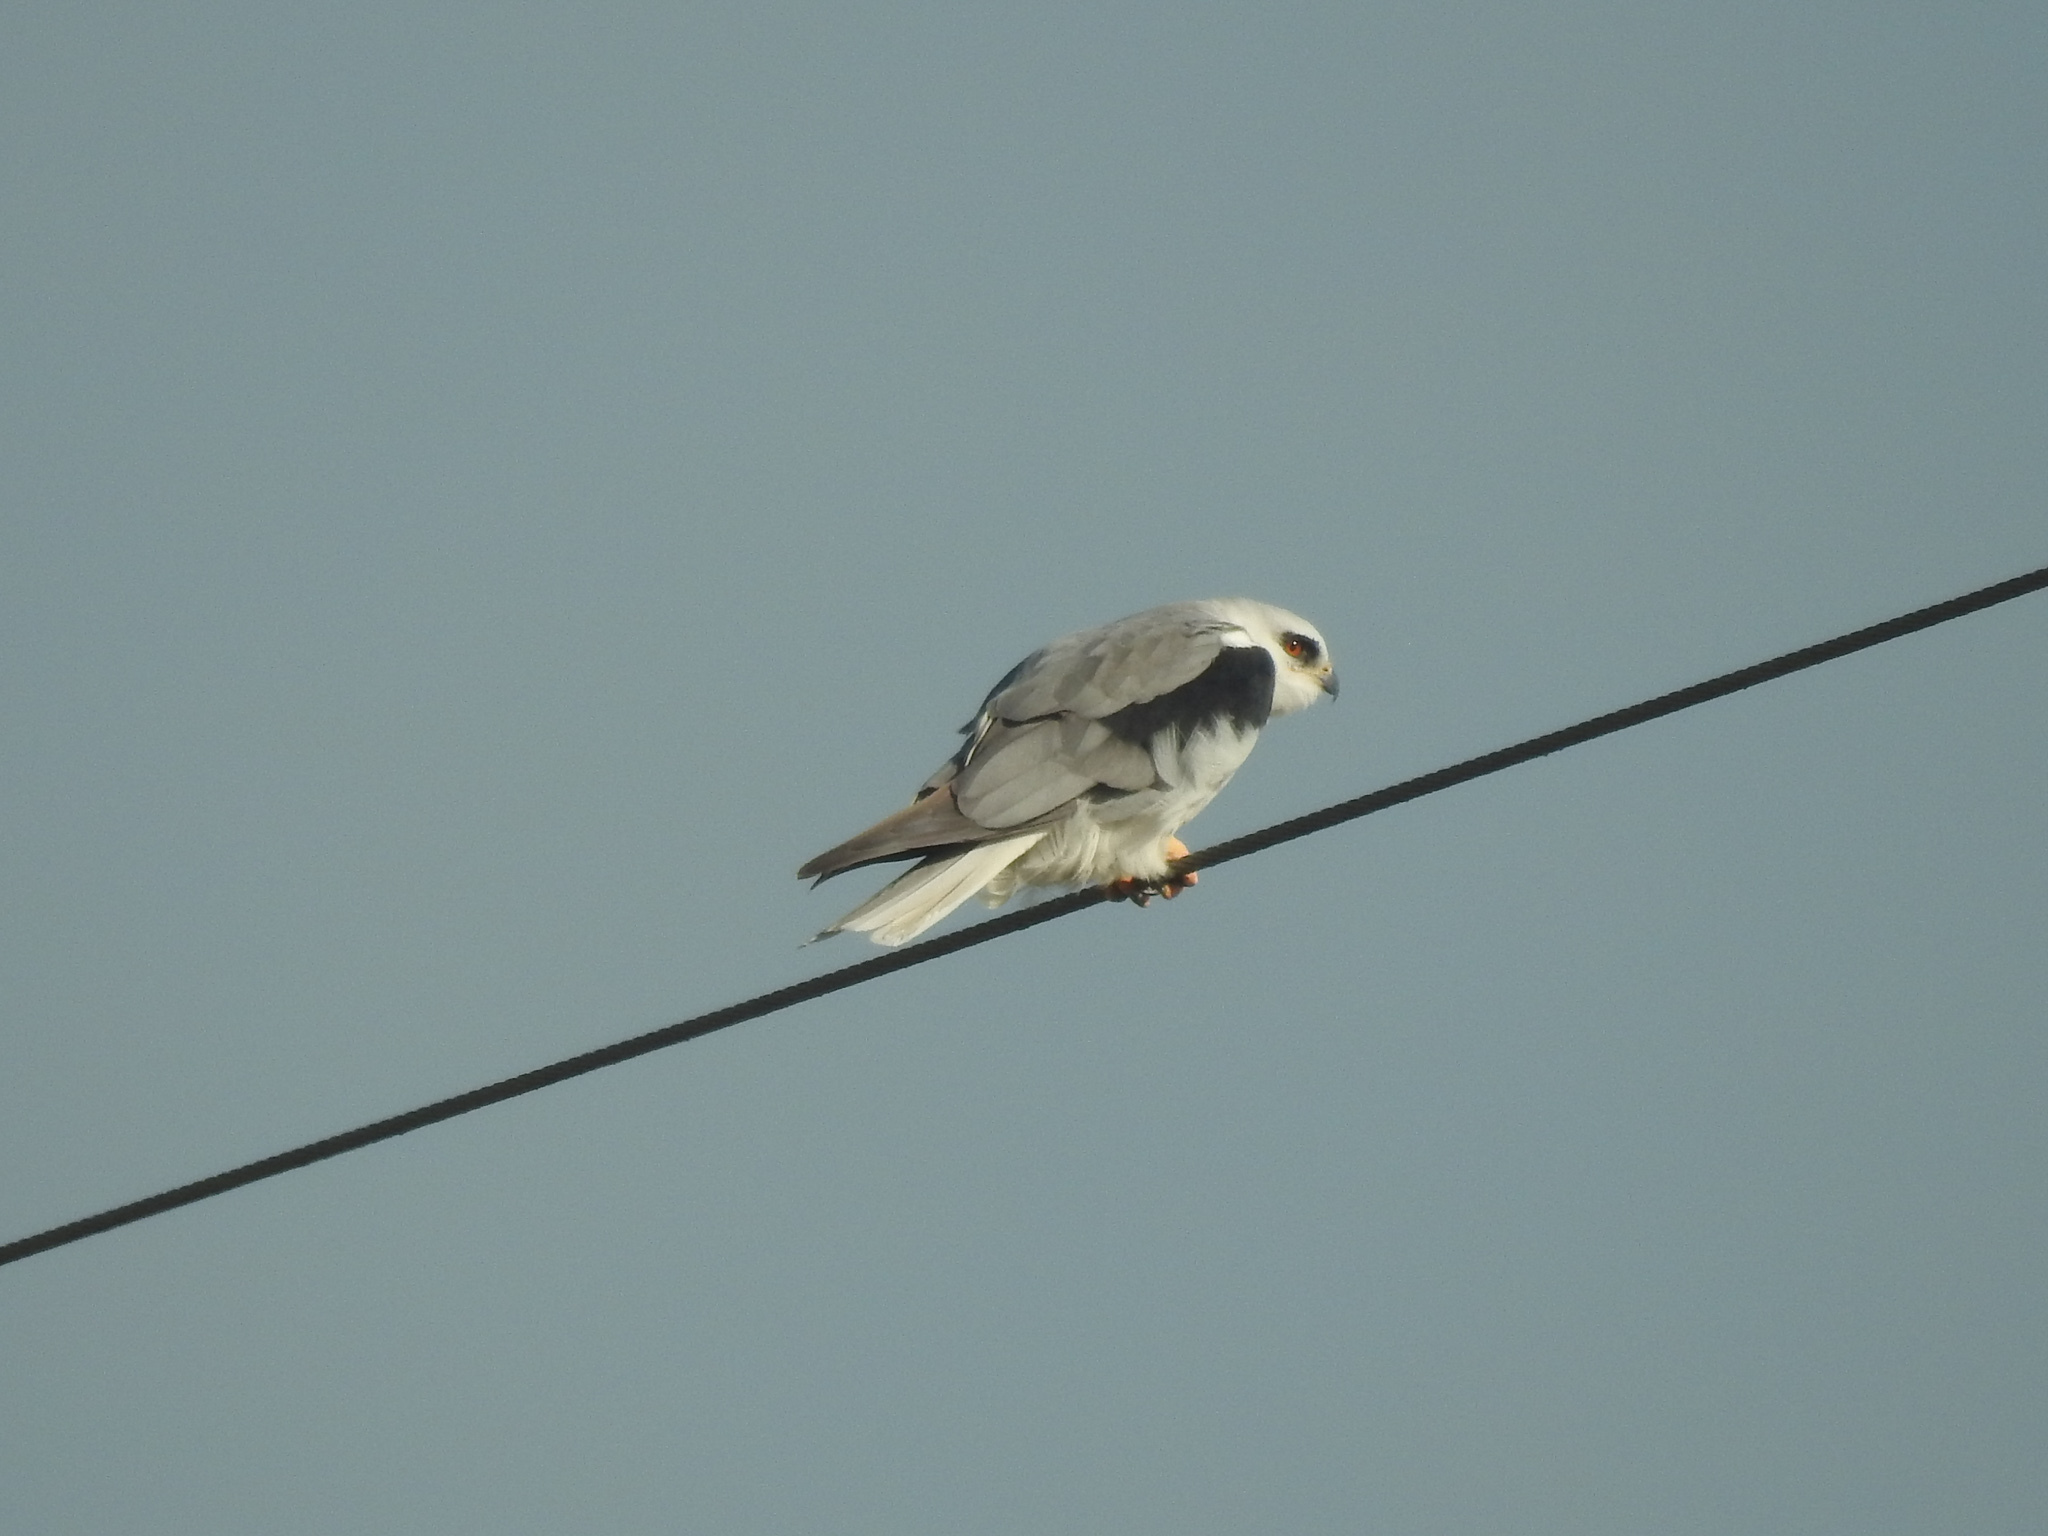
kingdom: Animalia
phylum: Chordata
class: Aves
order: Accipitriformes
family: Accipitridae
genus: Elanus
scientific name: Elanus leucurus
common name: White-tailed kite
